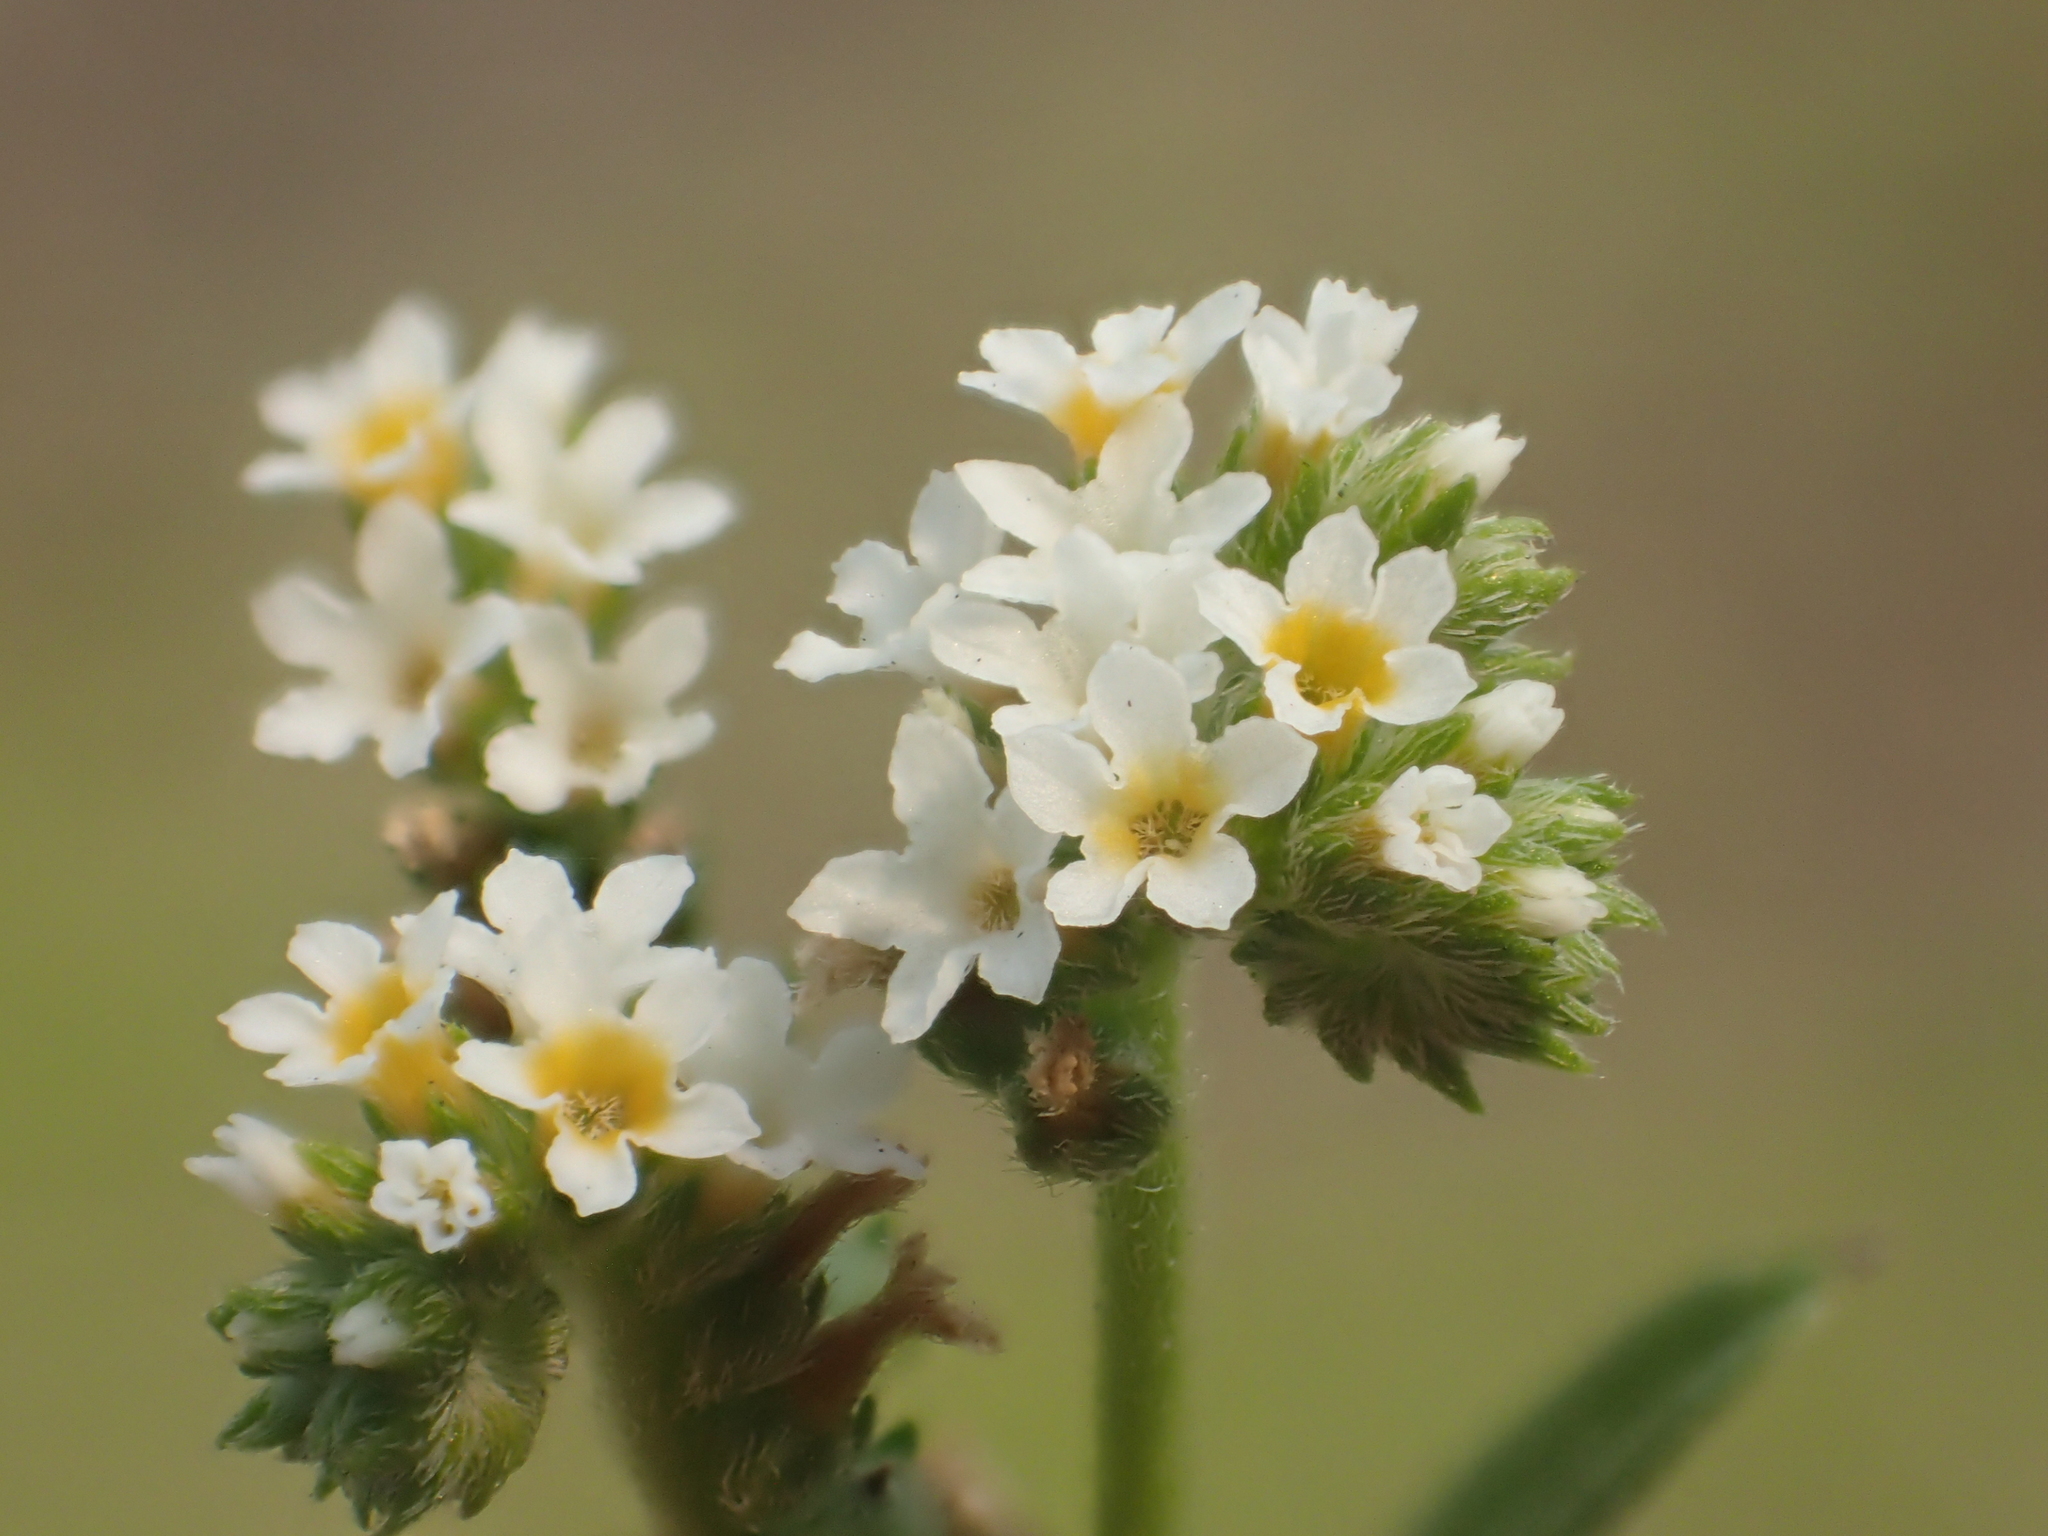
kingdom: Plantae
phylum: Tracheophyta
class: Magnoliopsida
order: Boraginales
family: Heliotropiaceae
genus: Euploca
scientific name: Euploca procumbens
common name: Fourspike heliotrope
